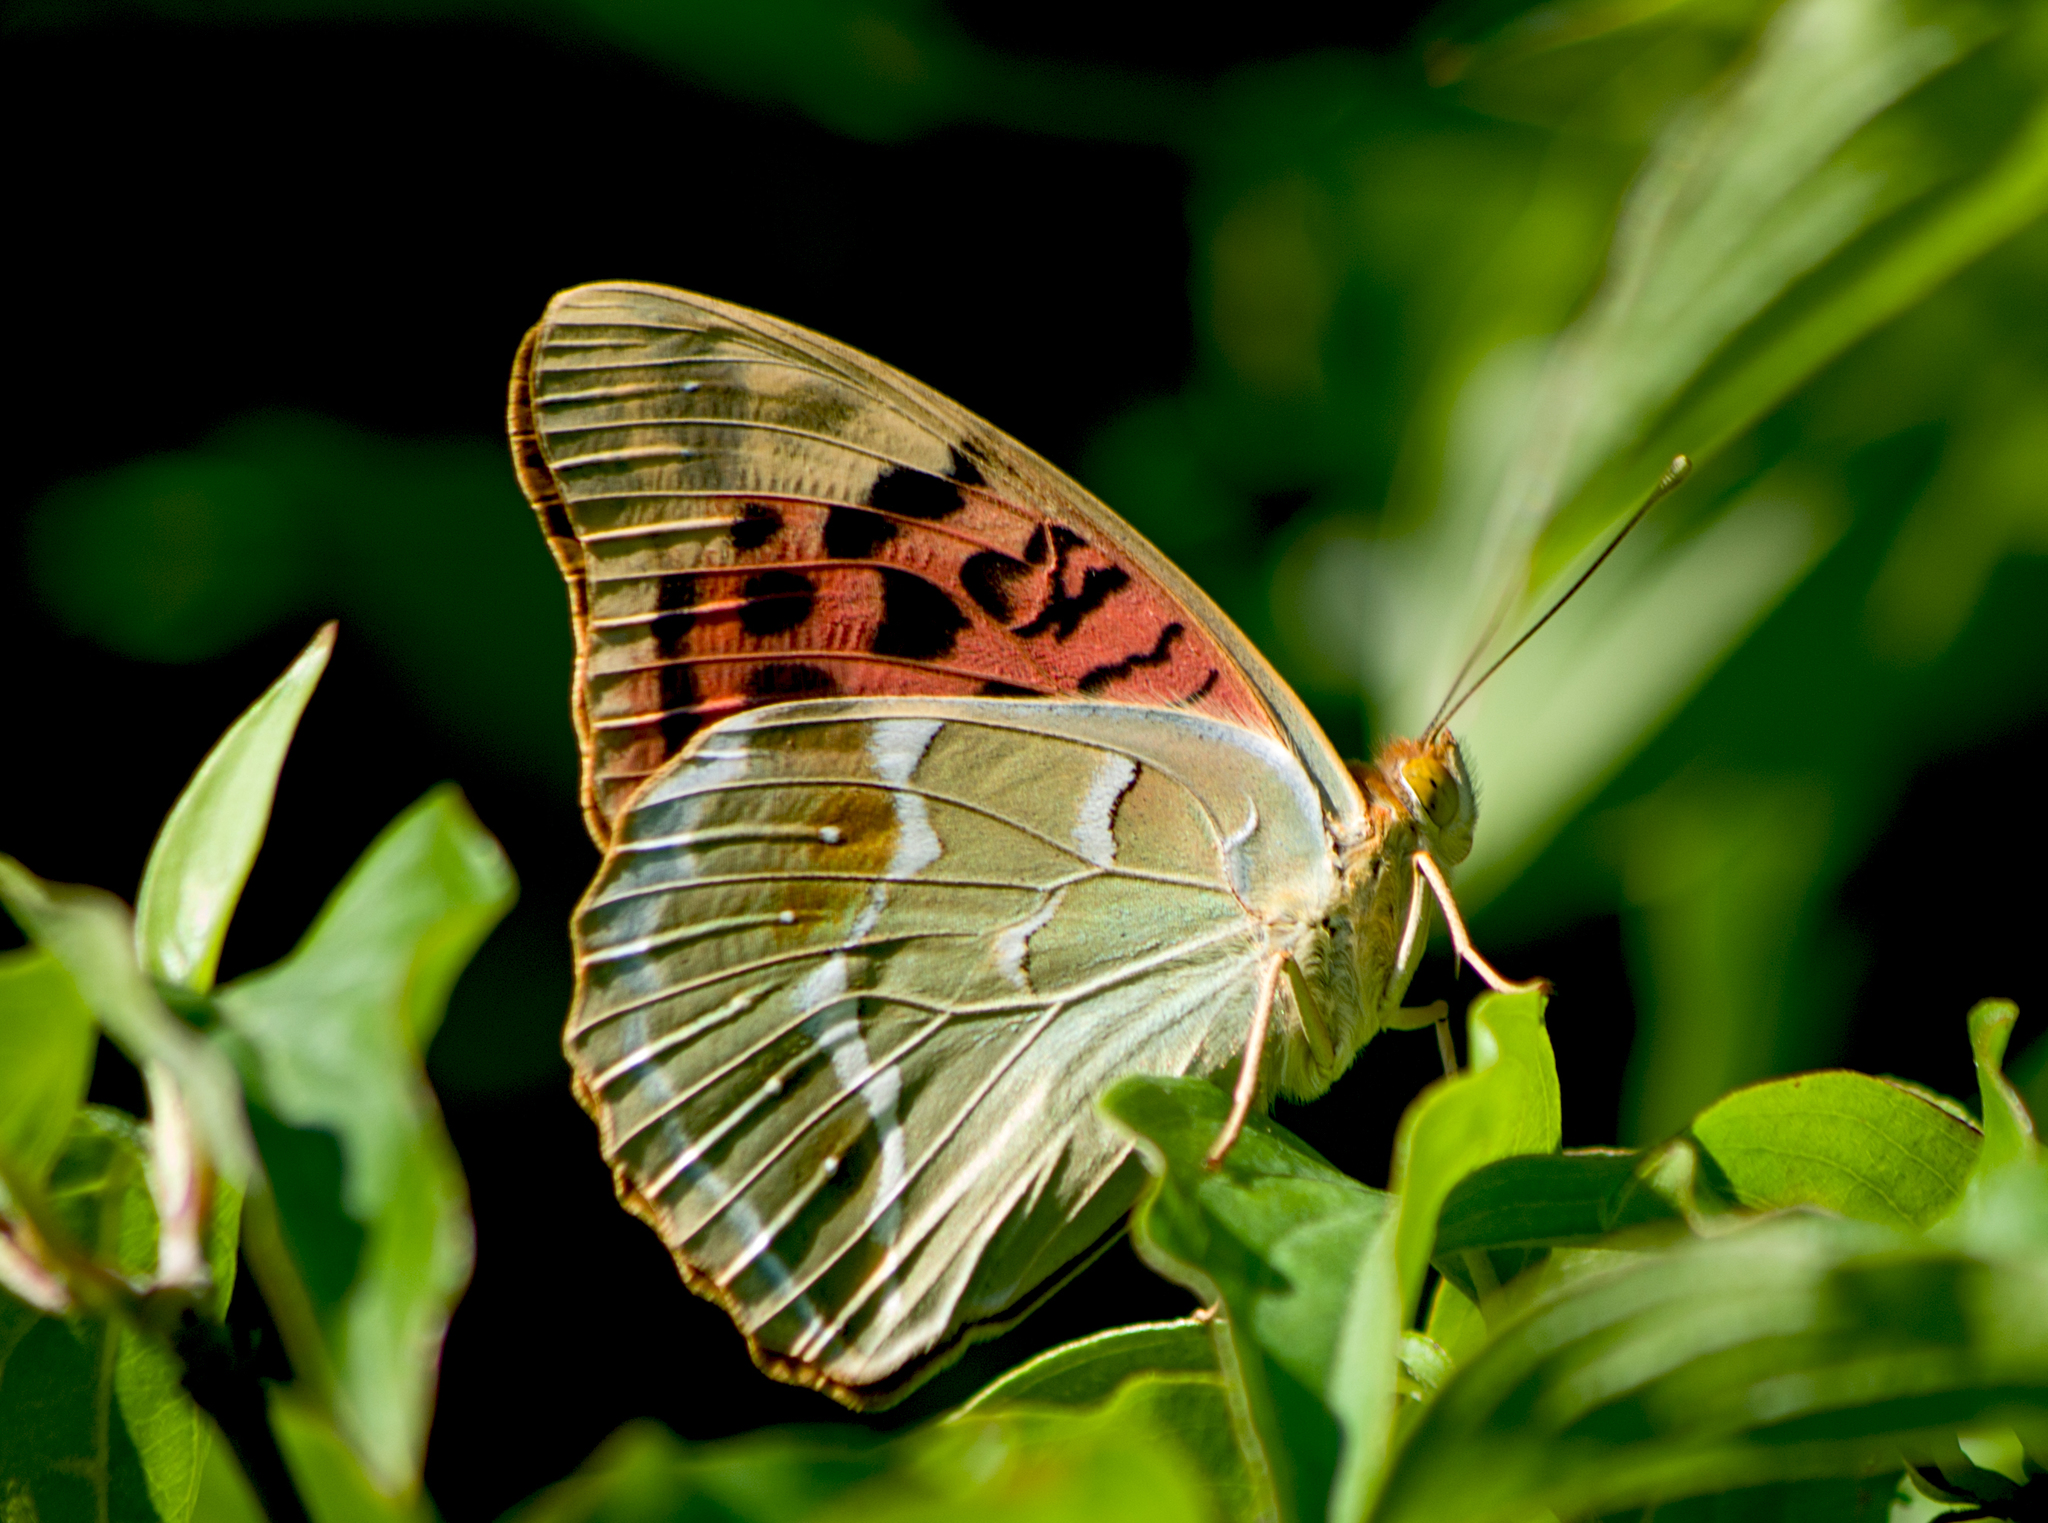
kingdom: Animalia
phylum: Arthropoda
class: Insecta
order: Lepidoptera
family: Nymphalidae
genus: Damora
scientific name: Damora pandora
